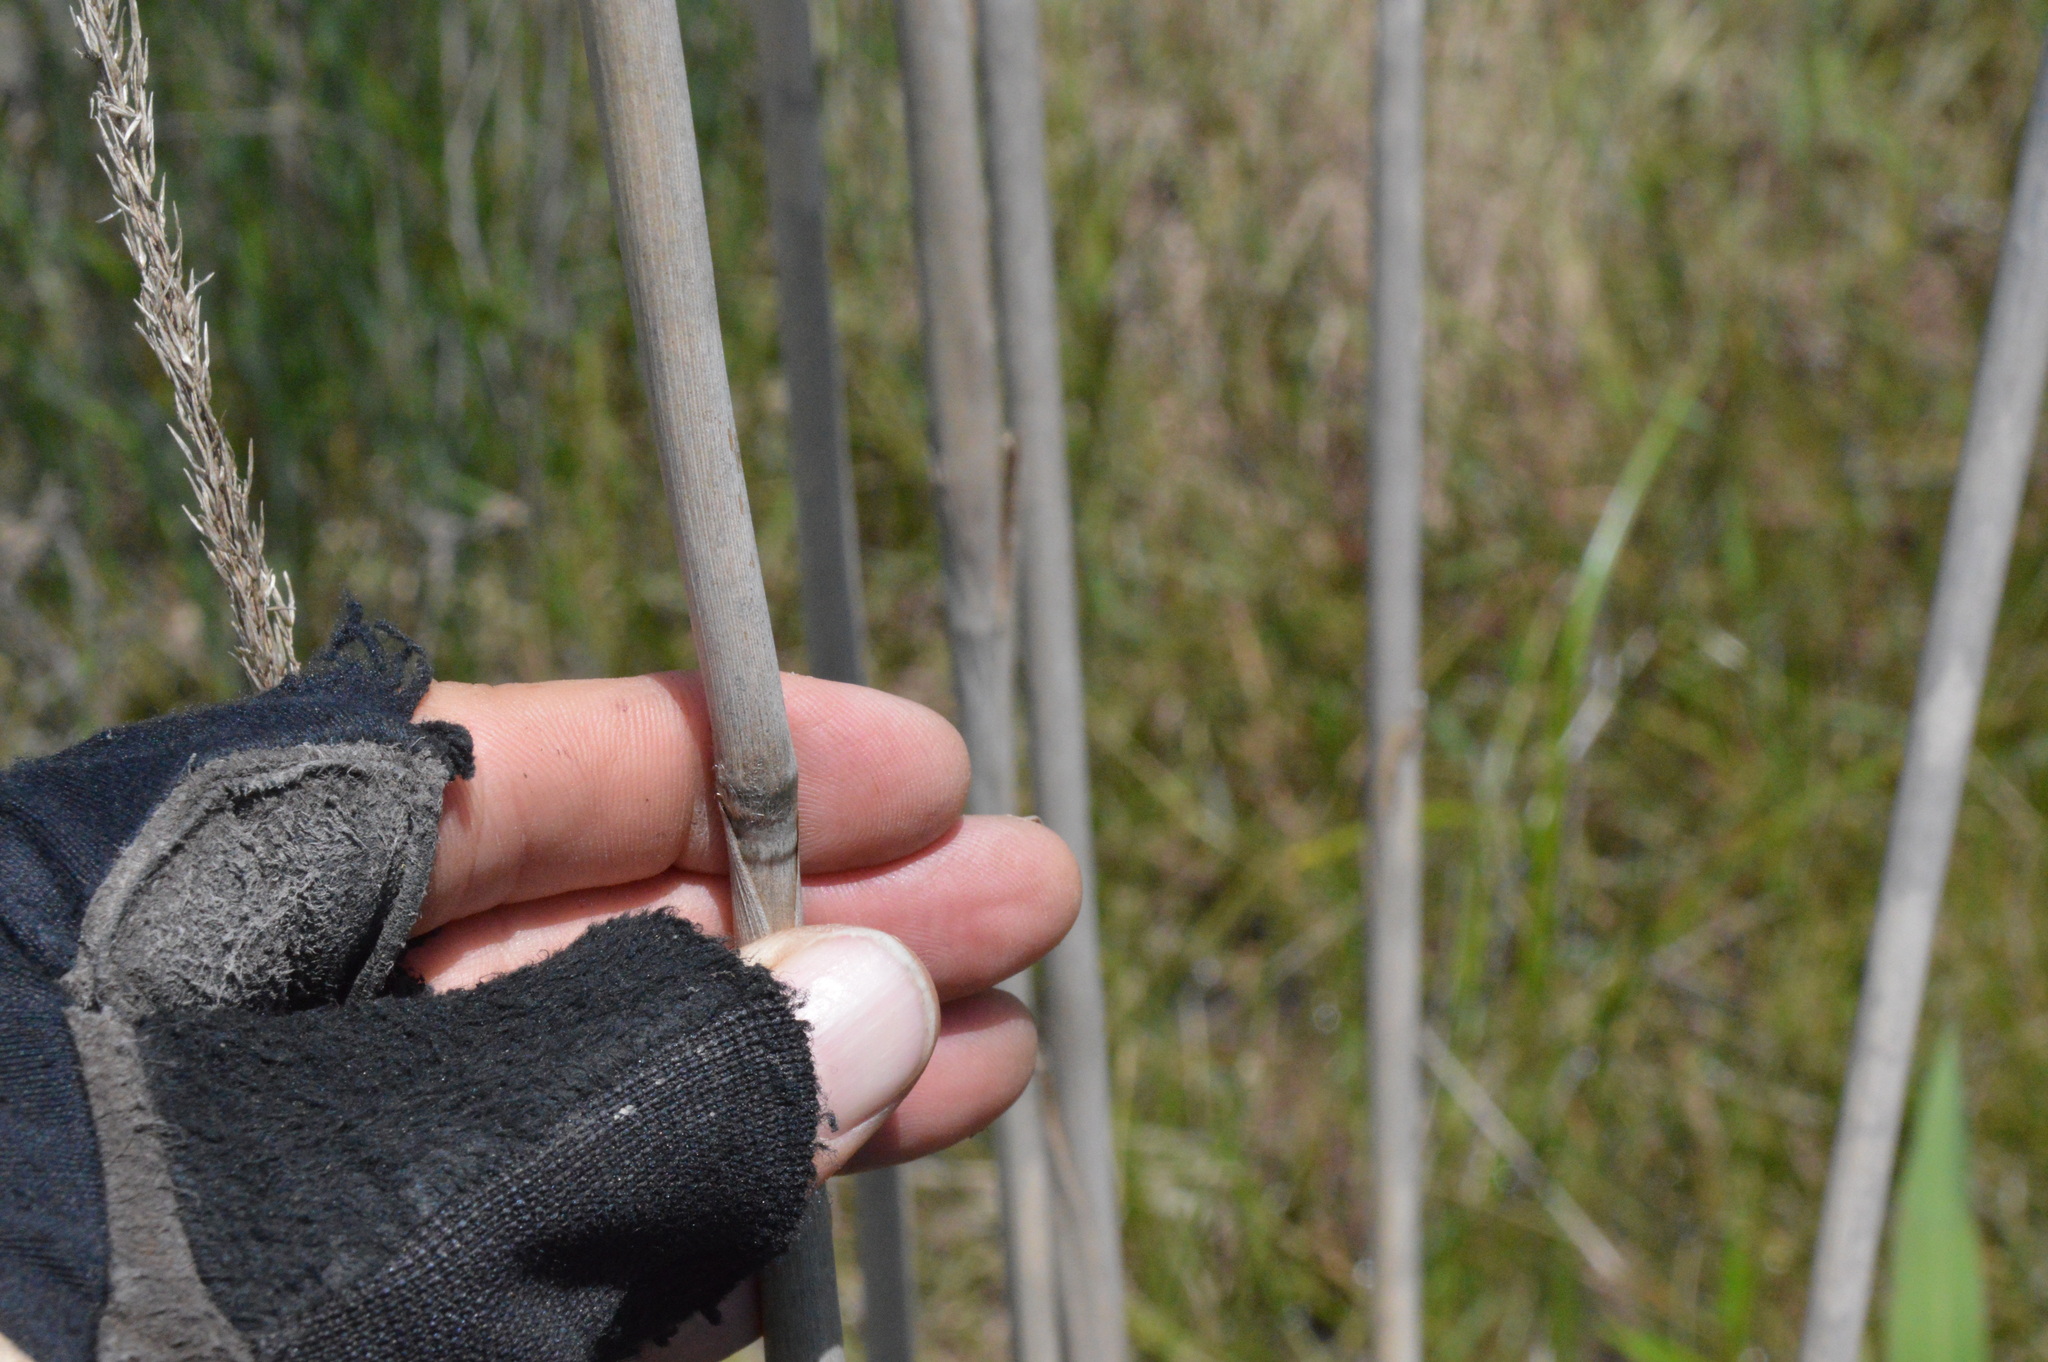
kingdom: Plantae
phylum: Tracheophyta
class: Liliopsida
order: Poales
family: Poaceae
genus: Erianthus
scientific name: Erianthus giganteus
